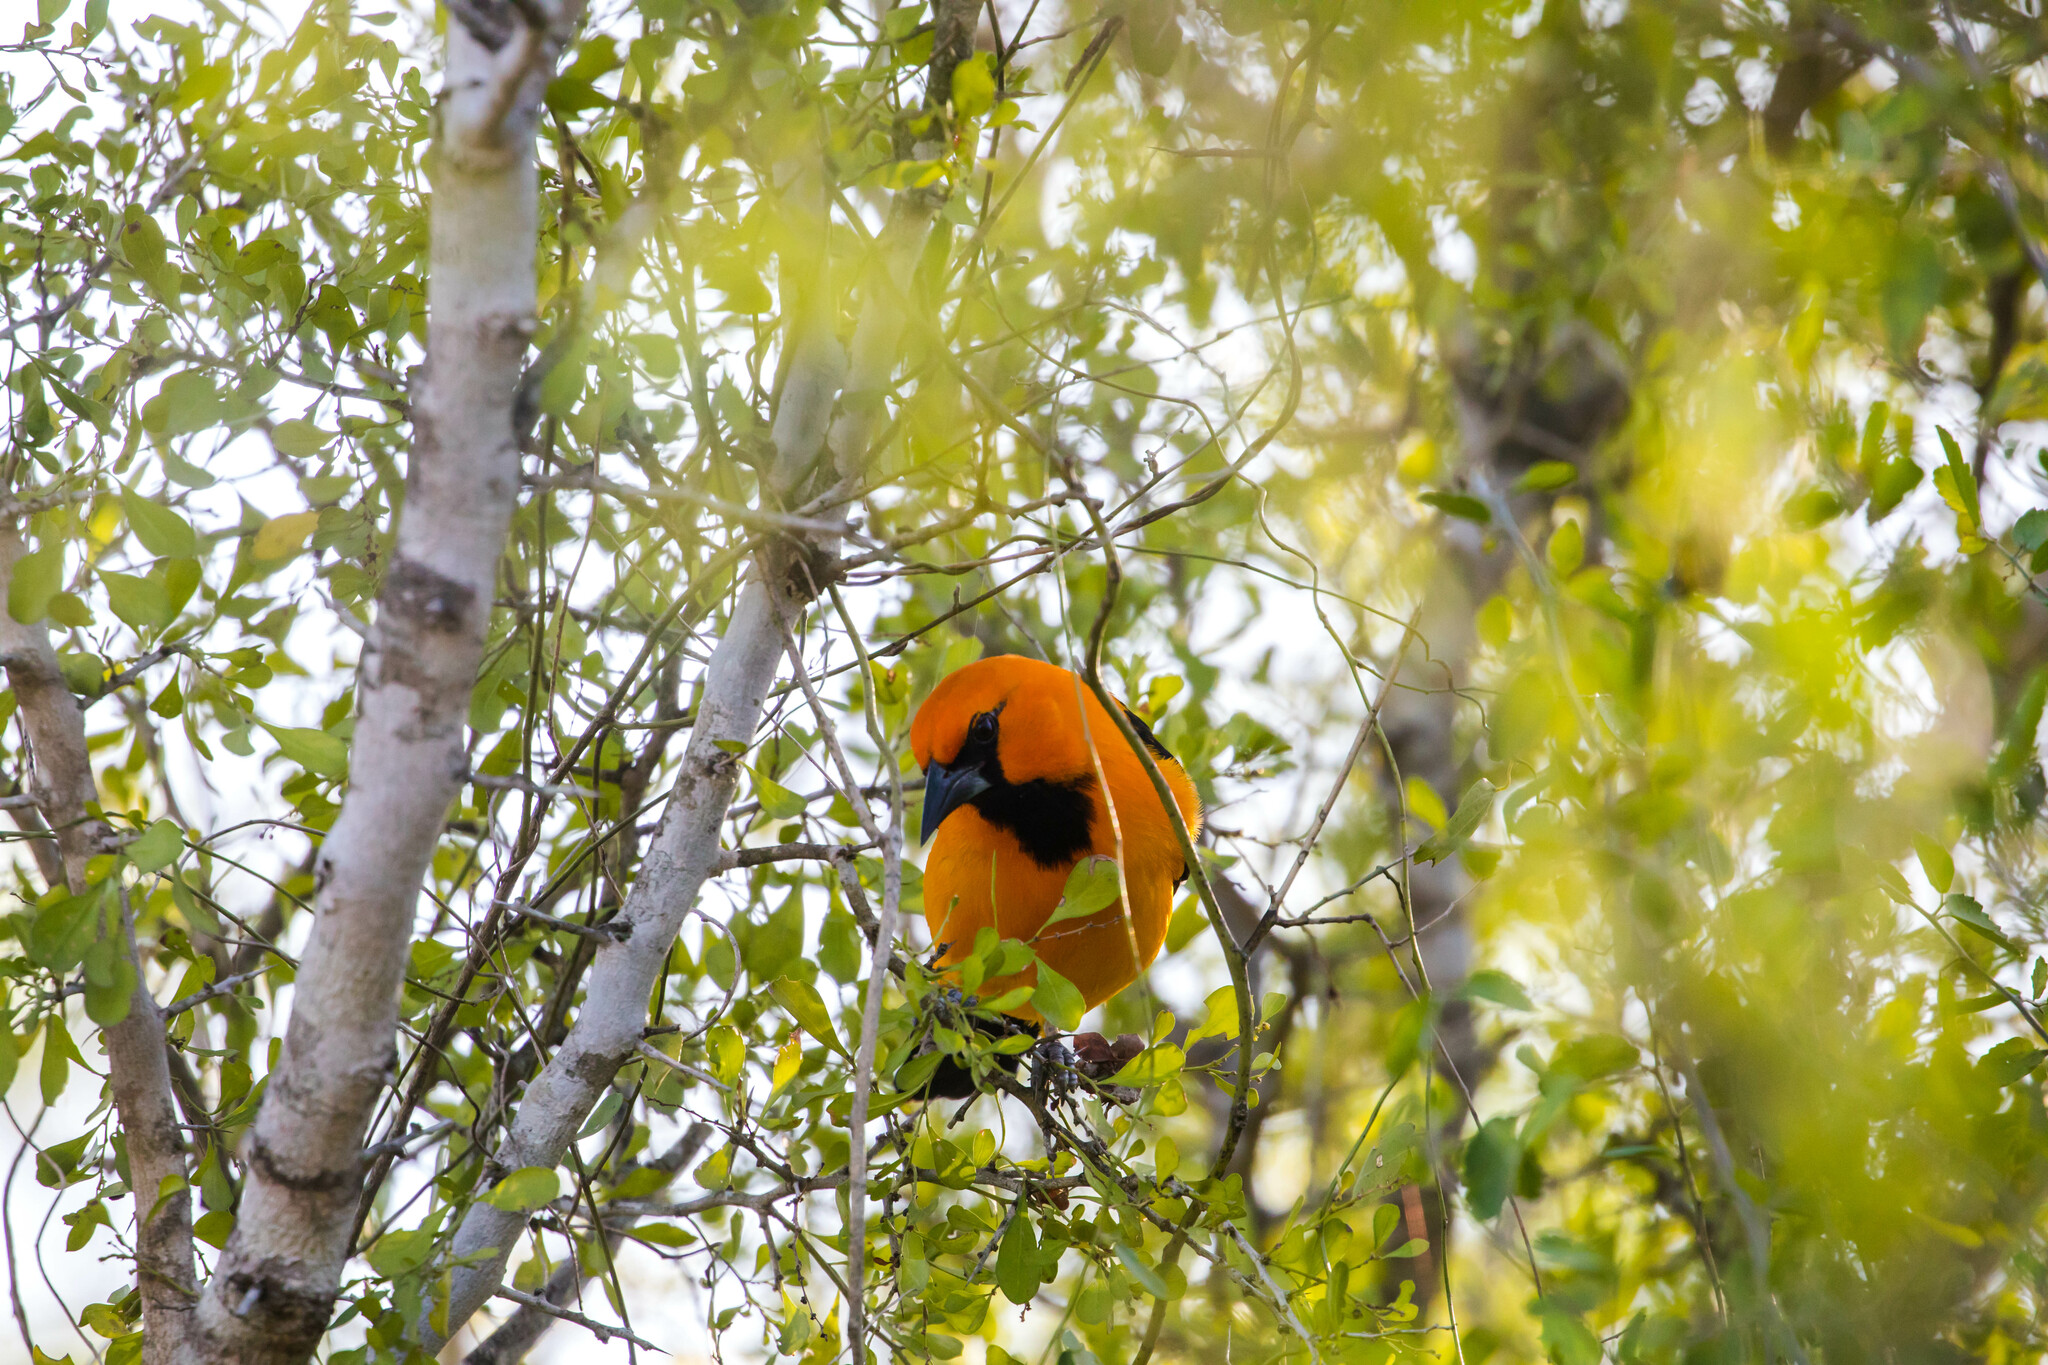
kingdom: Animalia
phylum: Chordata
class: Aves
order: Passeriformes
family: Icteridae
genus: Icterus
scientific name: Icterus gularis
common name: Altamira oriole
